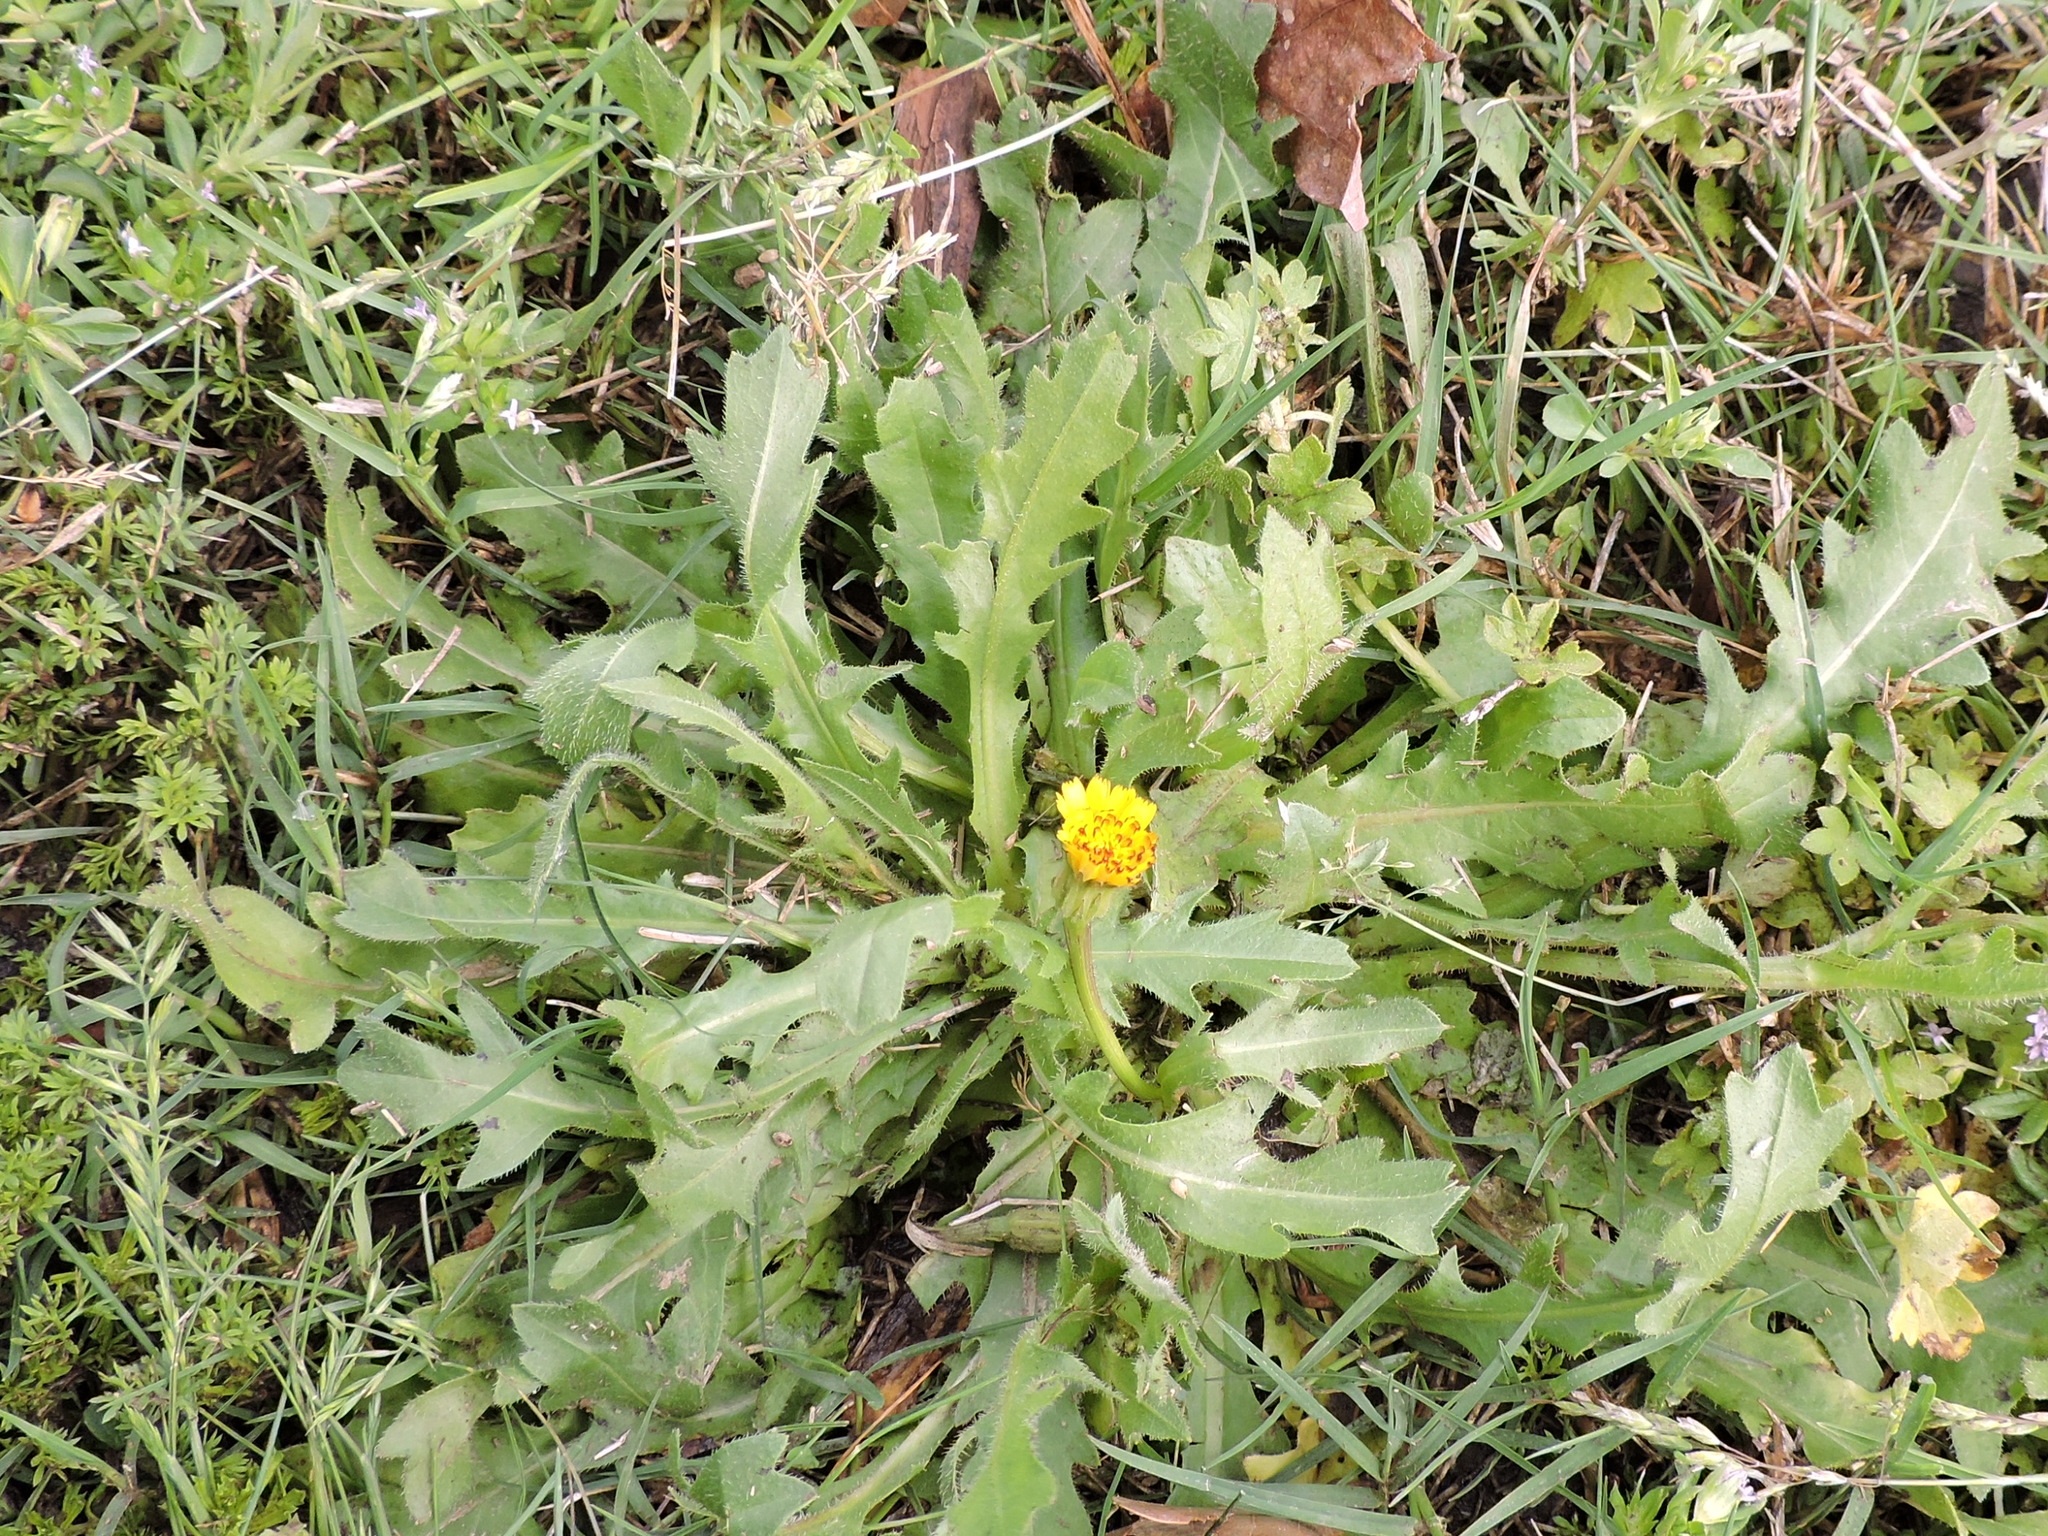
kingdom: Plantae
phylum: Tracheophyta
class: Magnoliopsida
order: Asterales
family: Asteraceae
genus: Hedypnois
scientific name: Hedypnois rhagadioloides
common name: Cretan weed
